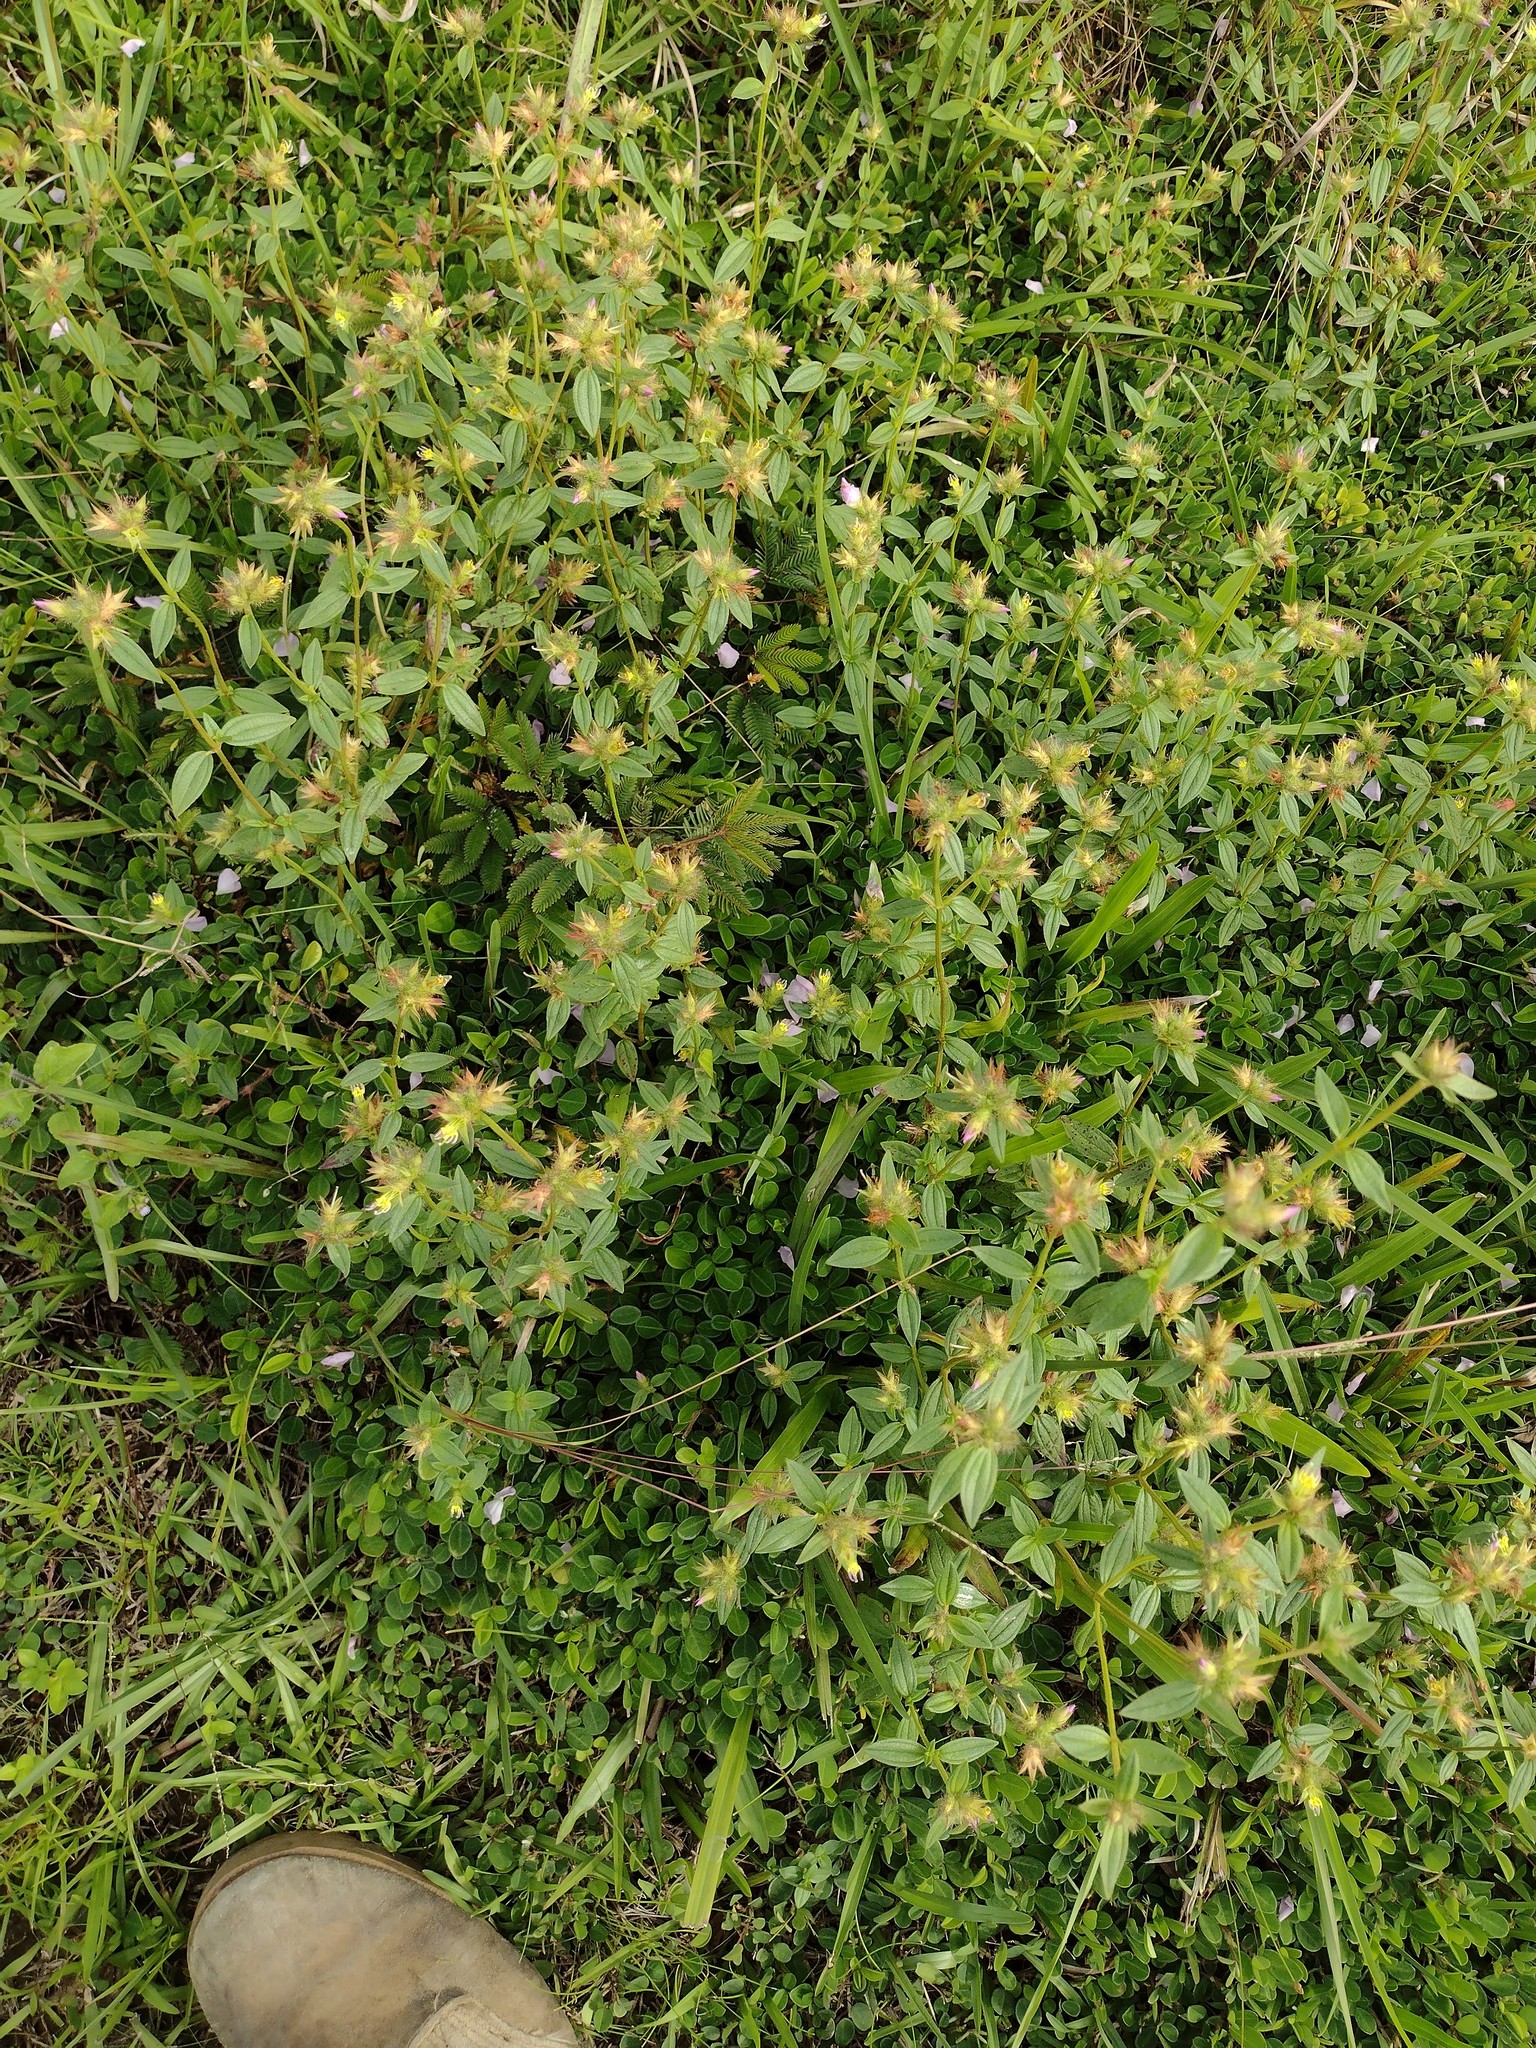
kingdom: Plantae
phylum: Tracheophyta
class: Magnoliopsida
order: Myrtales
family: Melastomataceae
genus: Pterolepis
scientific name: Pterolepis glomerata
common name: False meadowbeauty
